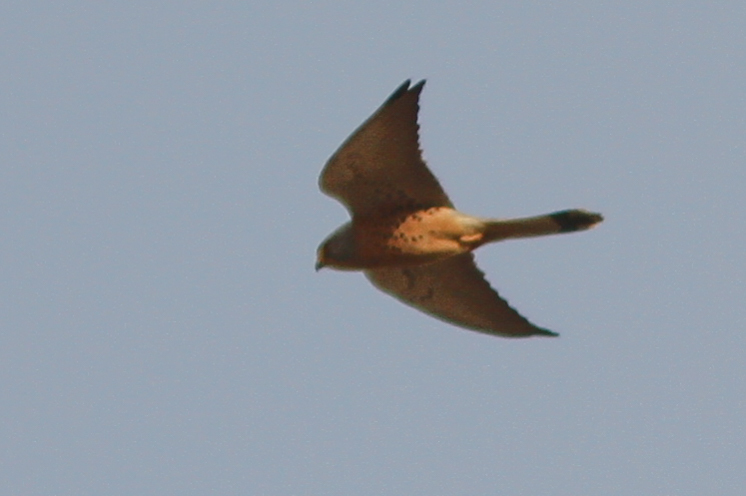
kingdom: Animalia
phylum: Chordata
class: Aves
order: Falconiformes
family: Falconidae
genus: Falco
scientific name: Falco naumanni
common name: Lesser kestrel
